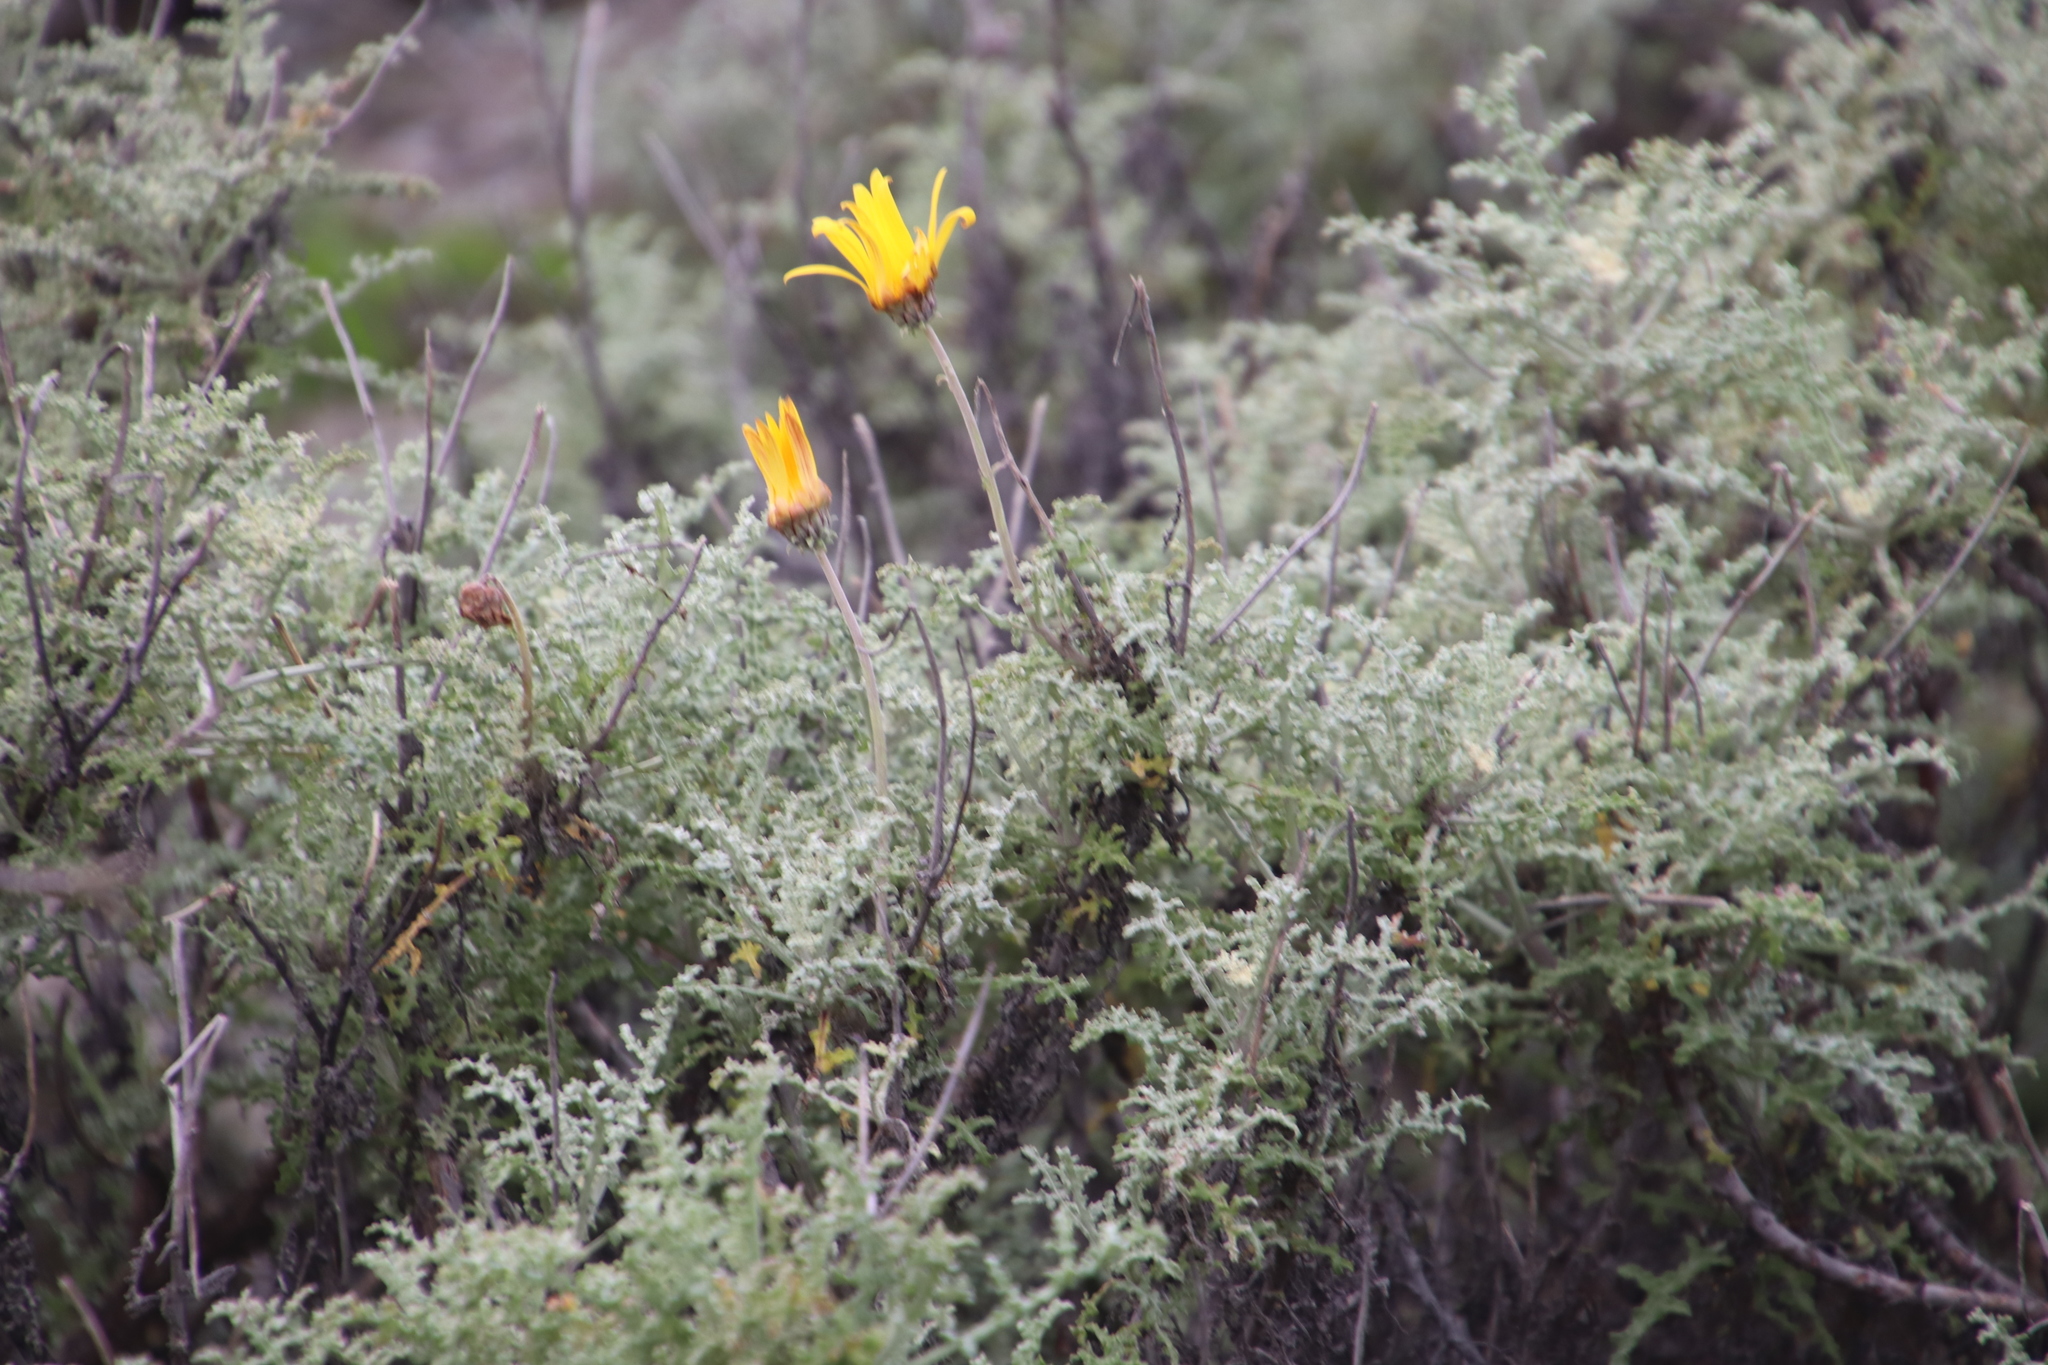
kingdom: Plantae
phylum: Tracheophyta
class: Magnoliopsida
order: Asterales
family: Asteraceae
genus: Arctotis
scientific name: Arctotis laciniata
